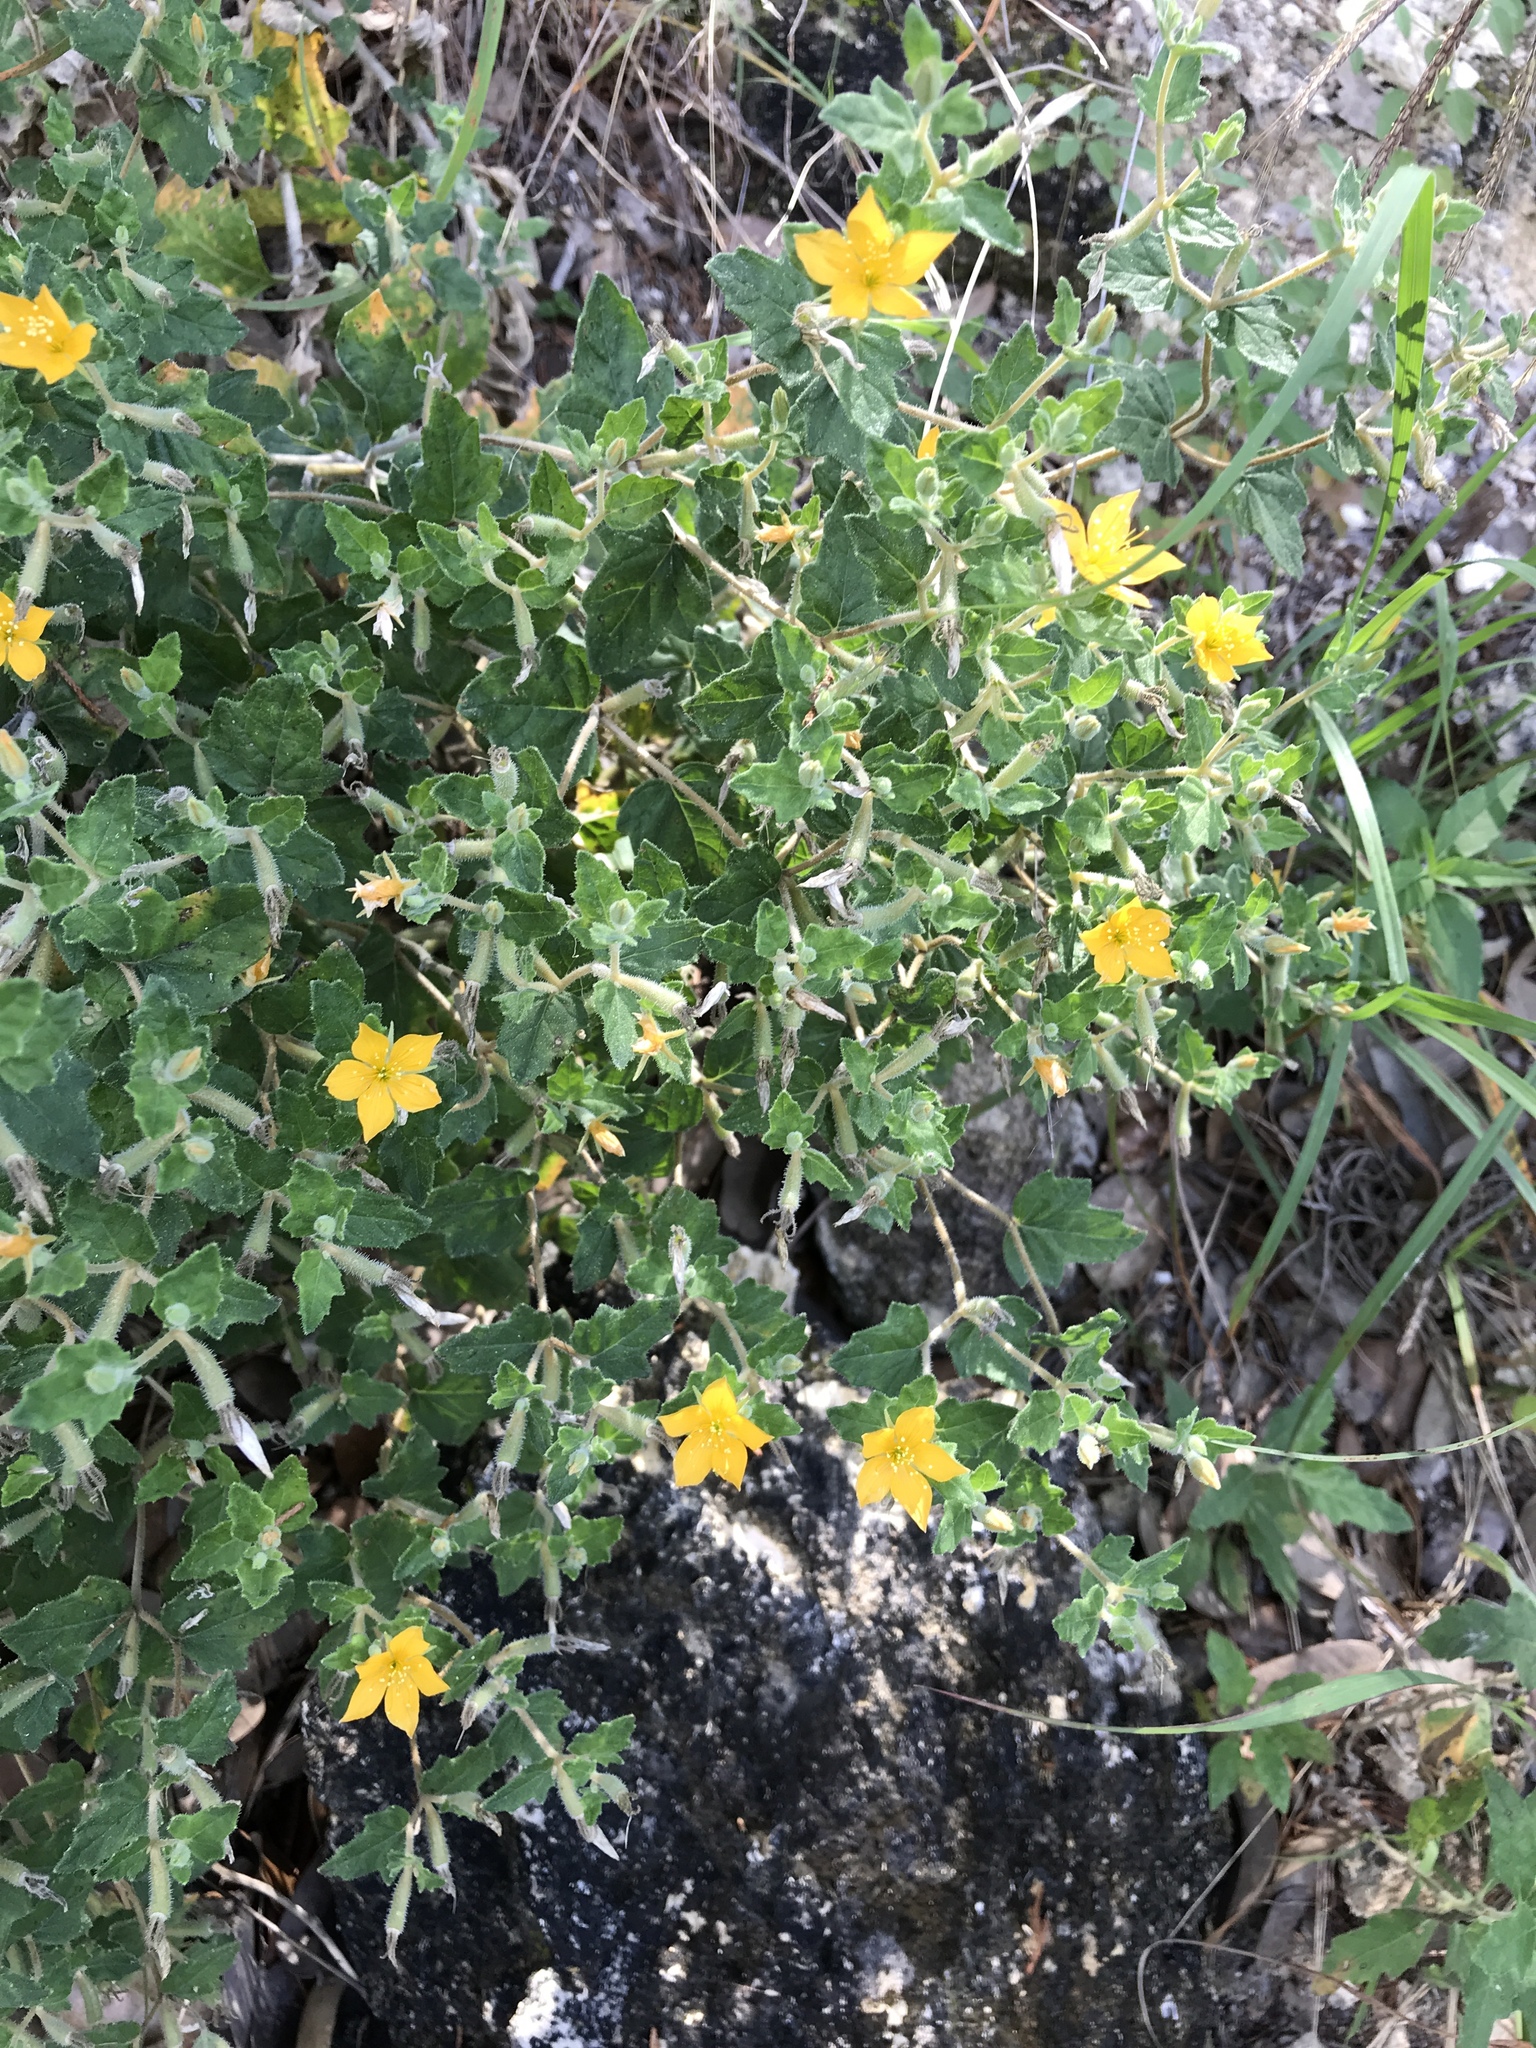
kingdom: Plantae
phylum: Tracheophyta
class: Magnoliopsida
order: Cornales
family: Loasaceae
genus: Mentzelia
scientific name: Mentzelia oligosperma
